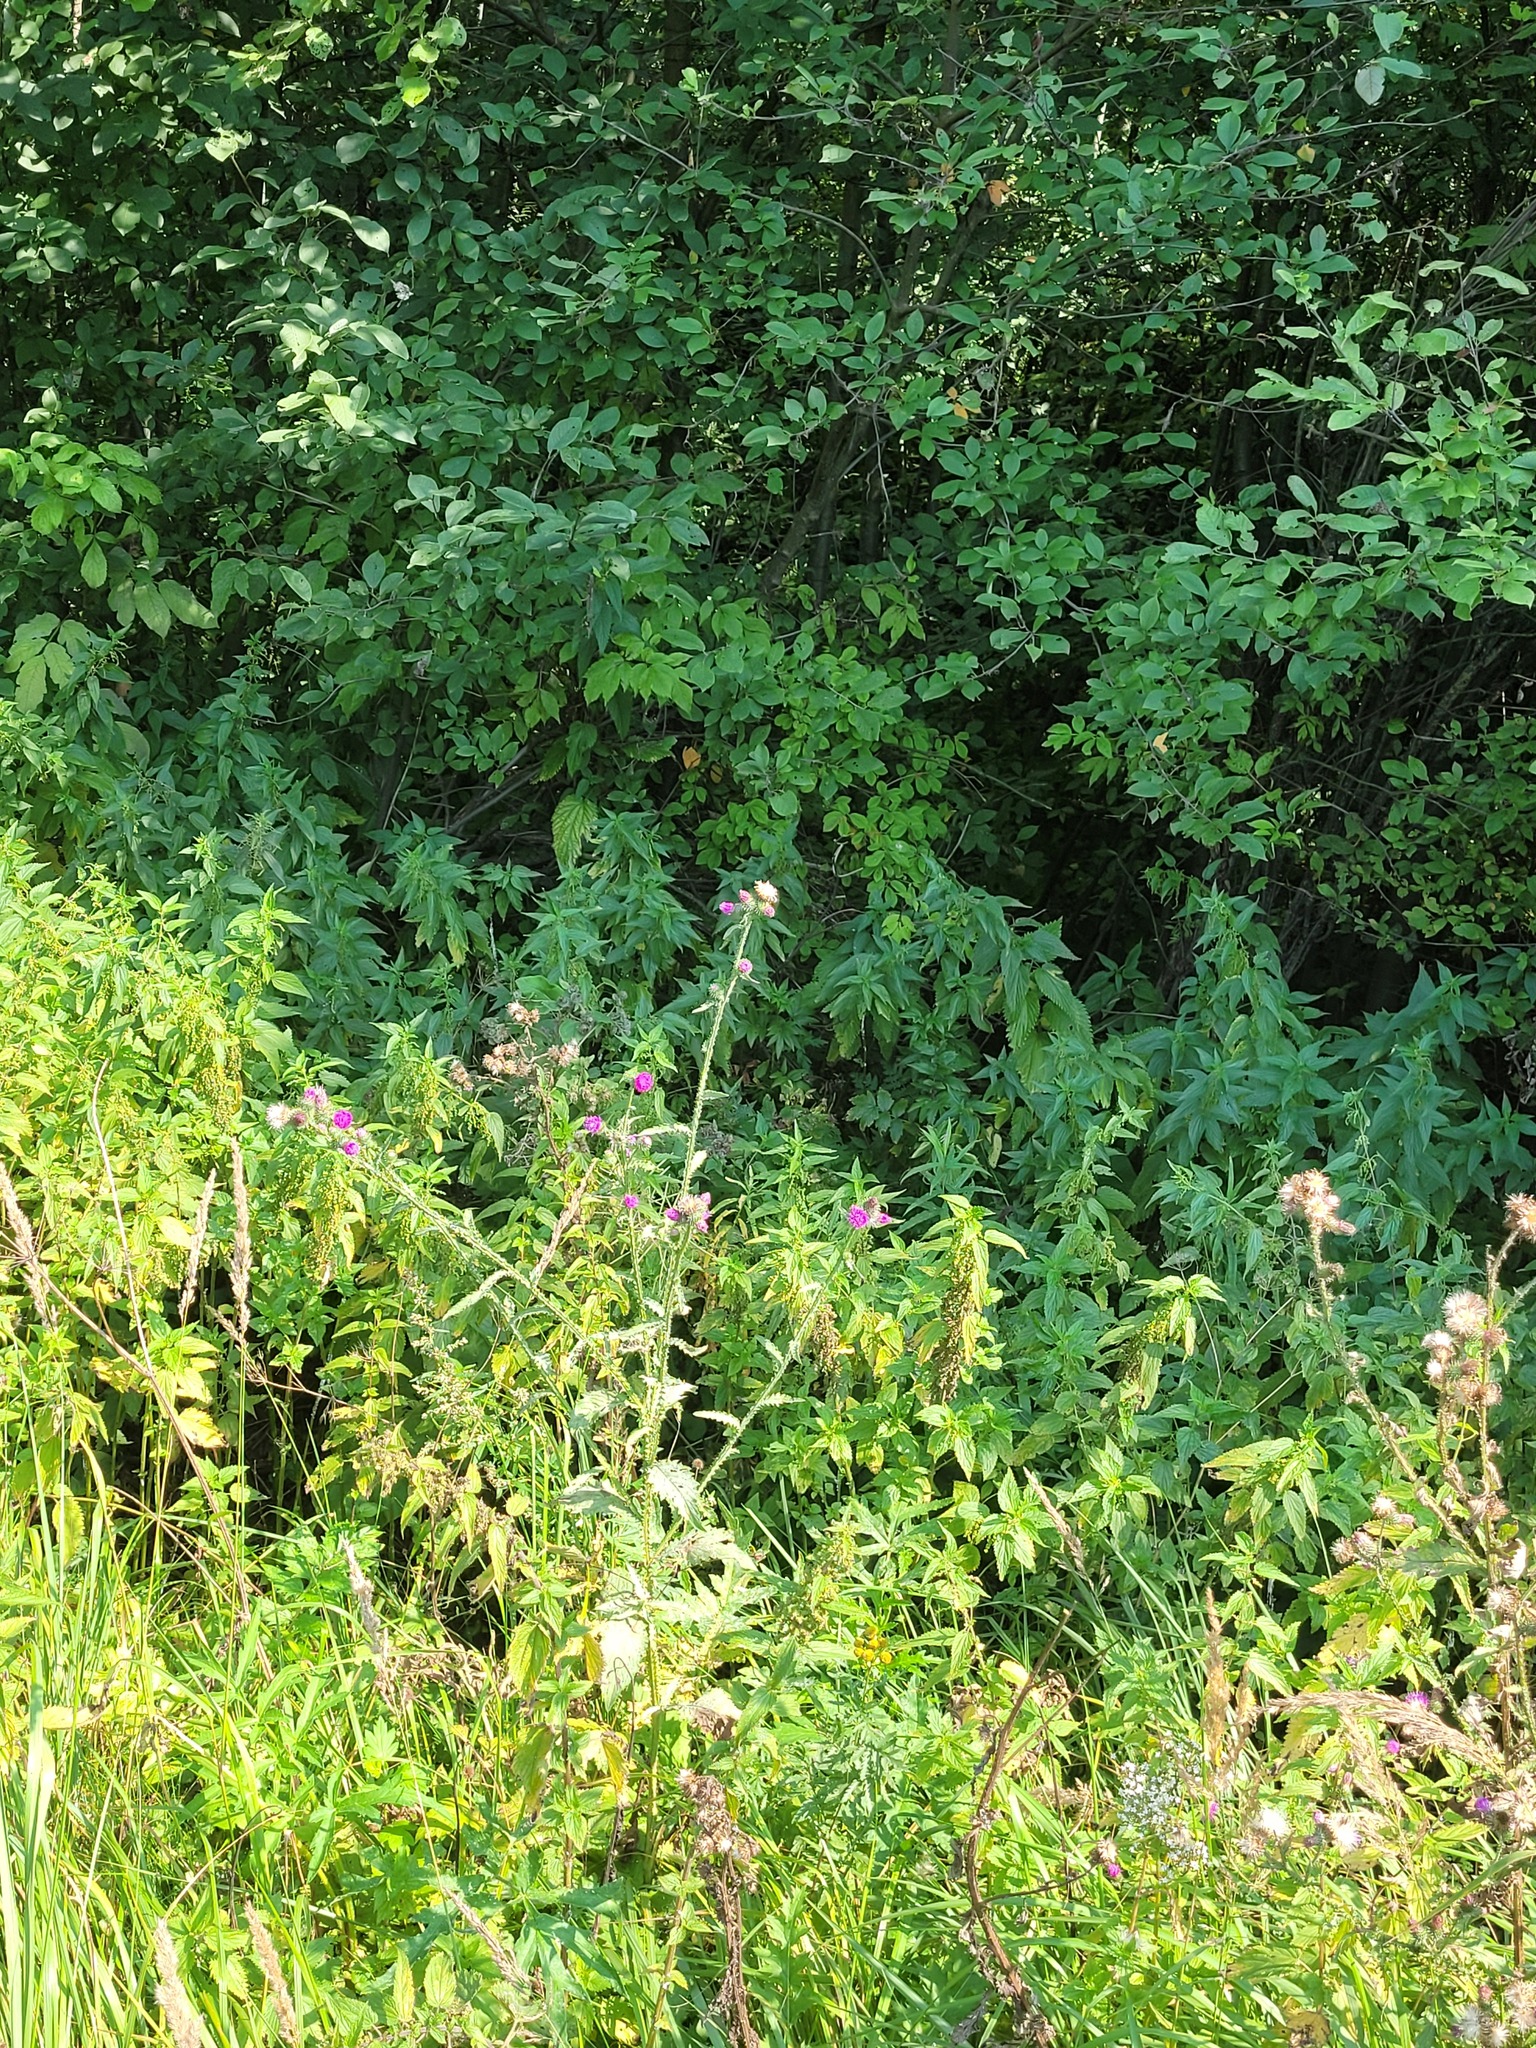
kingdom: Plantae
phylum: Tracheophyta
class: Magnoliopsida
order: Asterales
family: Asteraceae
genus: Carduus
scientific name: Carduus crispus
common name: Welted thistle
